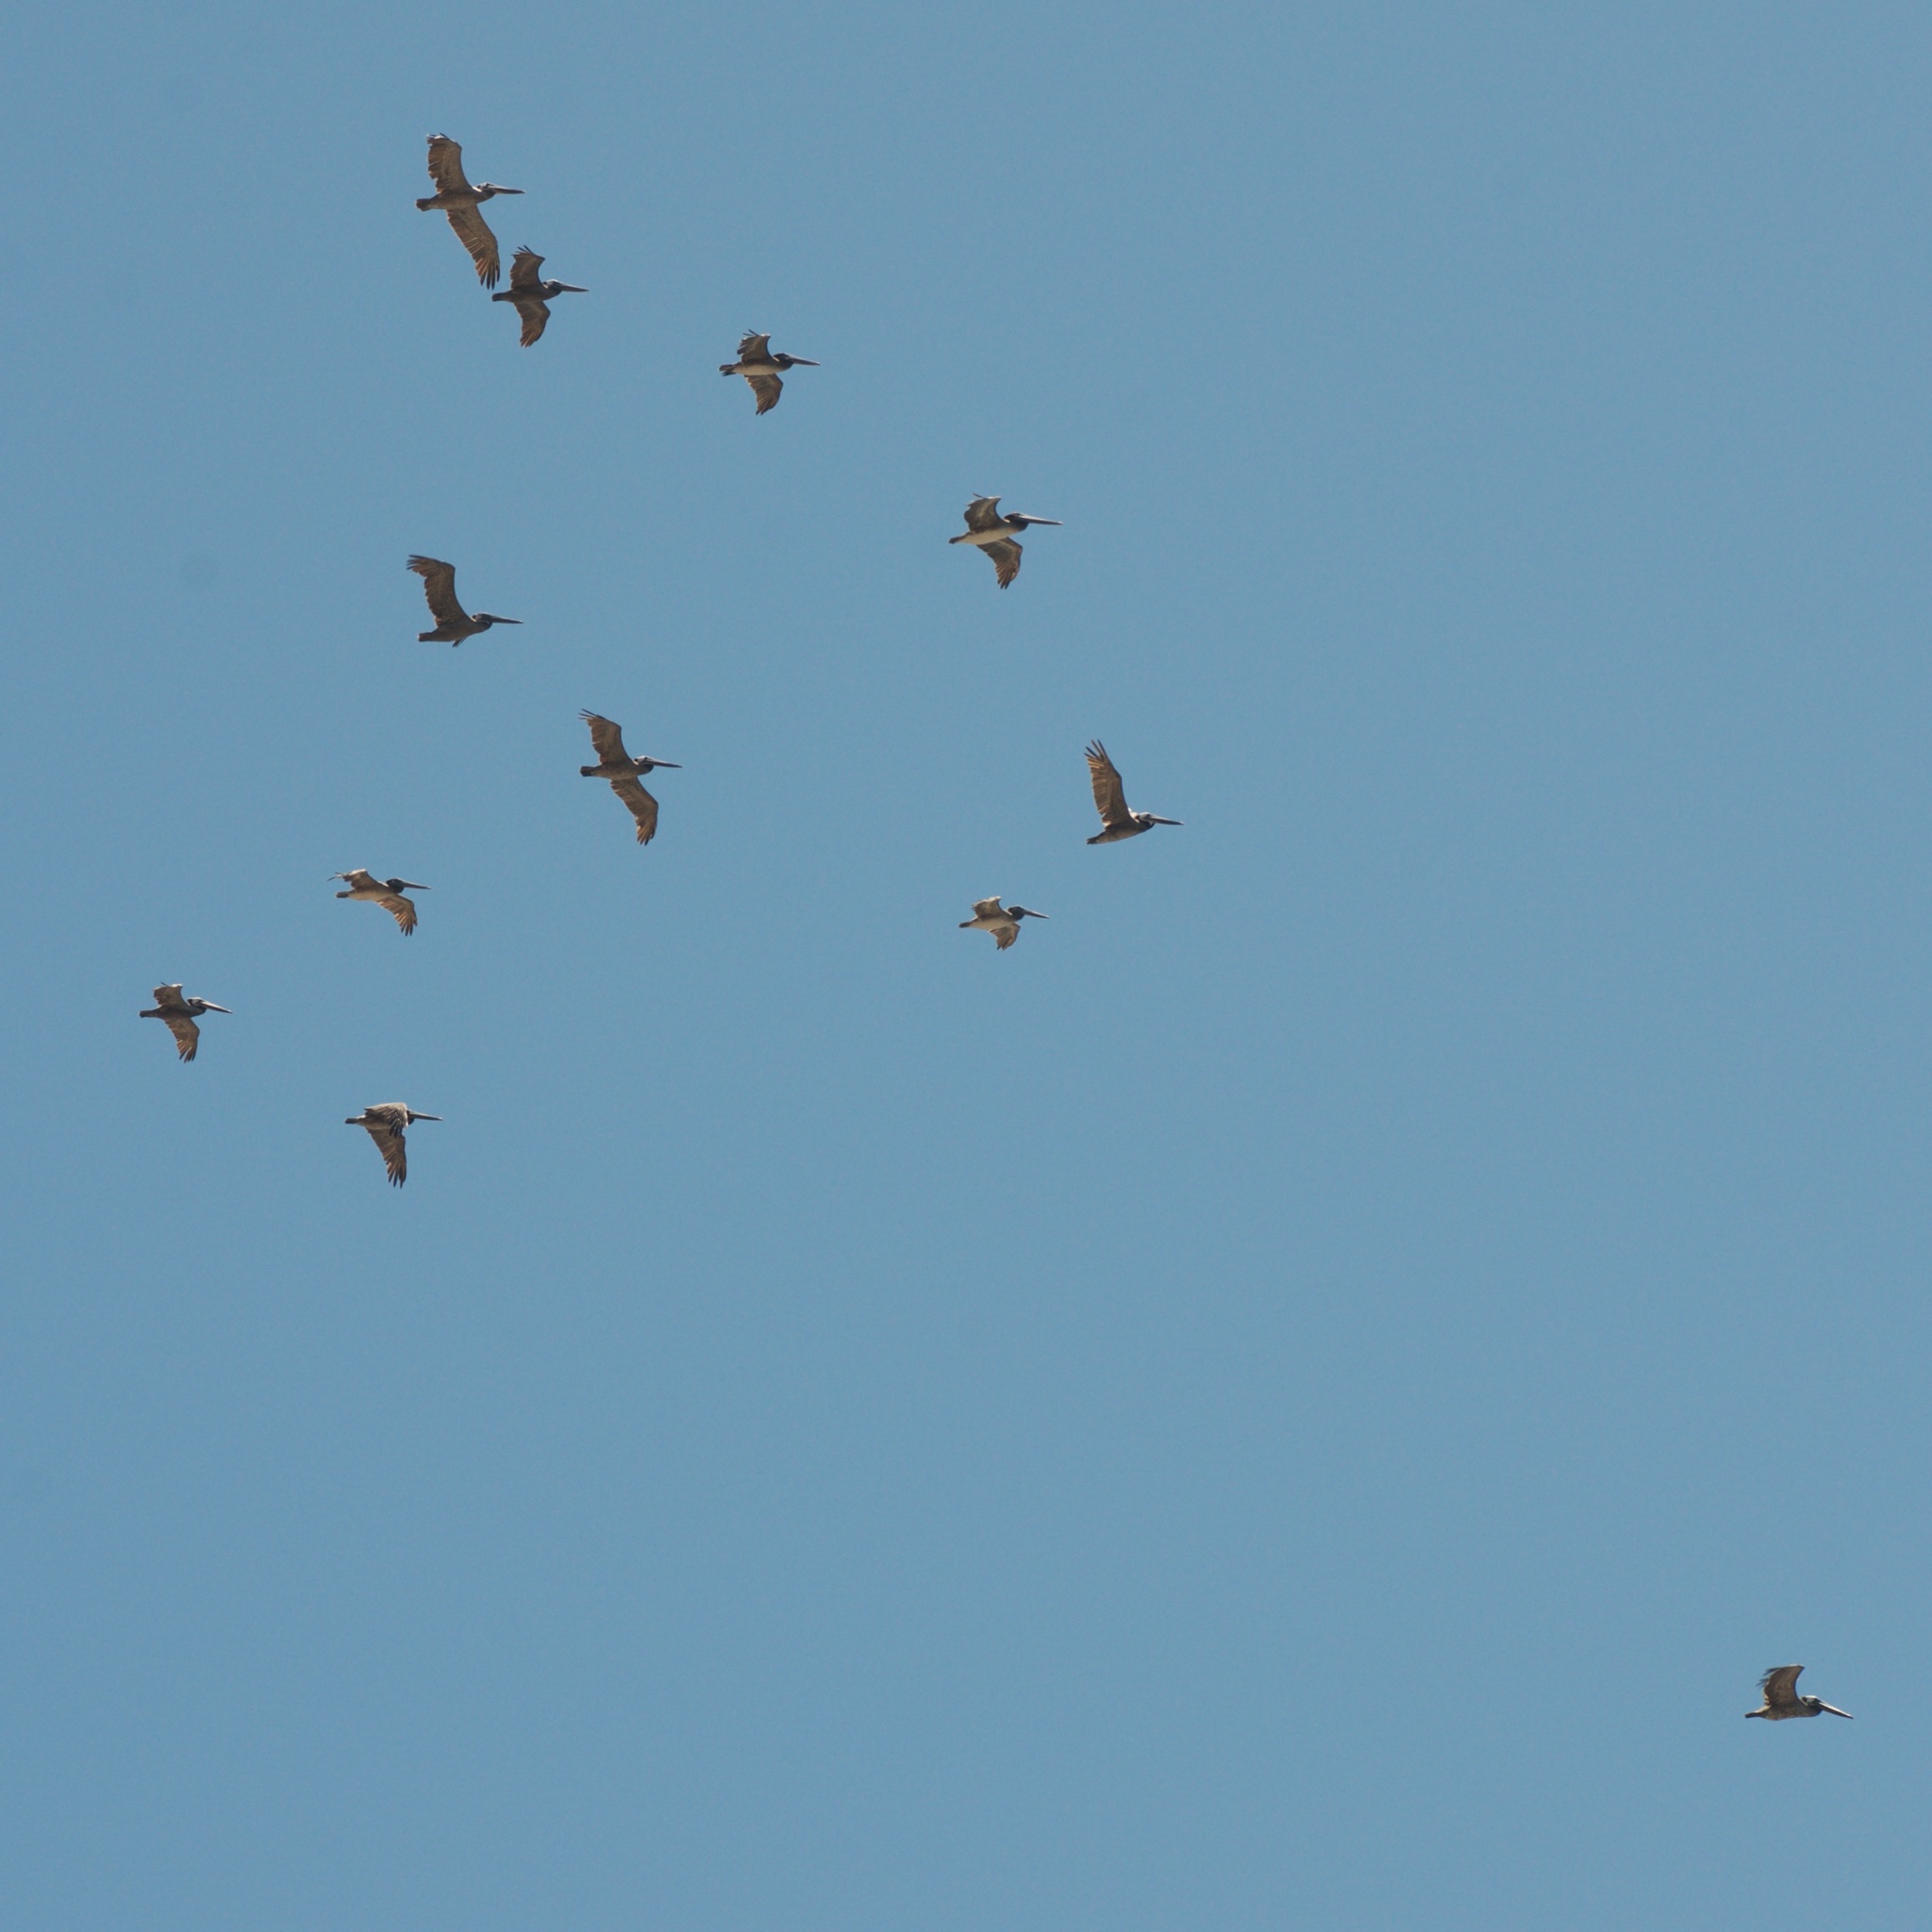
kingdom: Animalia
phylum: Chordata
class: Aves
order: Pelecaniformes
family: Pelecanidae
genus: Pelecanus
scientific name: Pelecanus occidentalis
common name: Brown pelican
